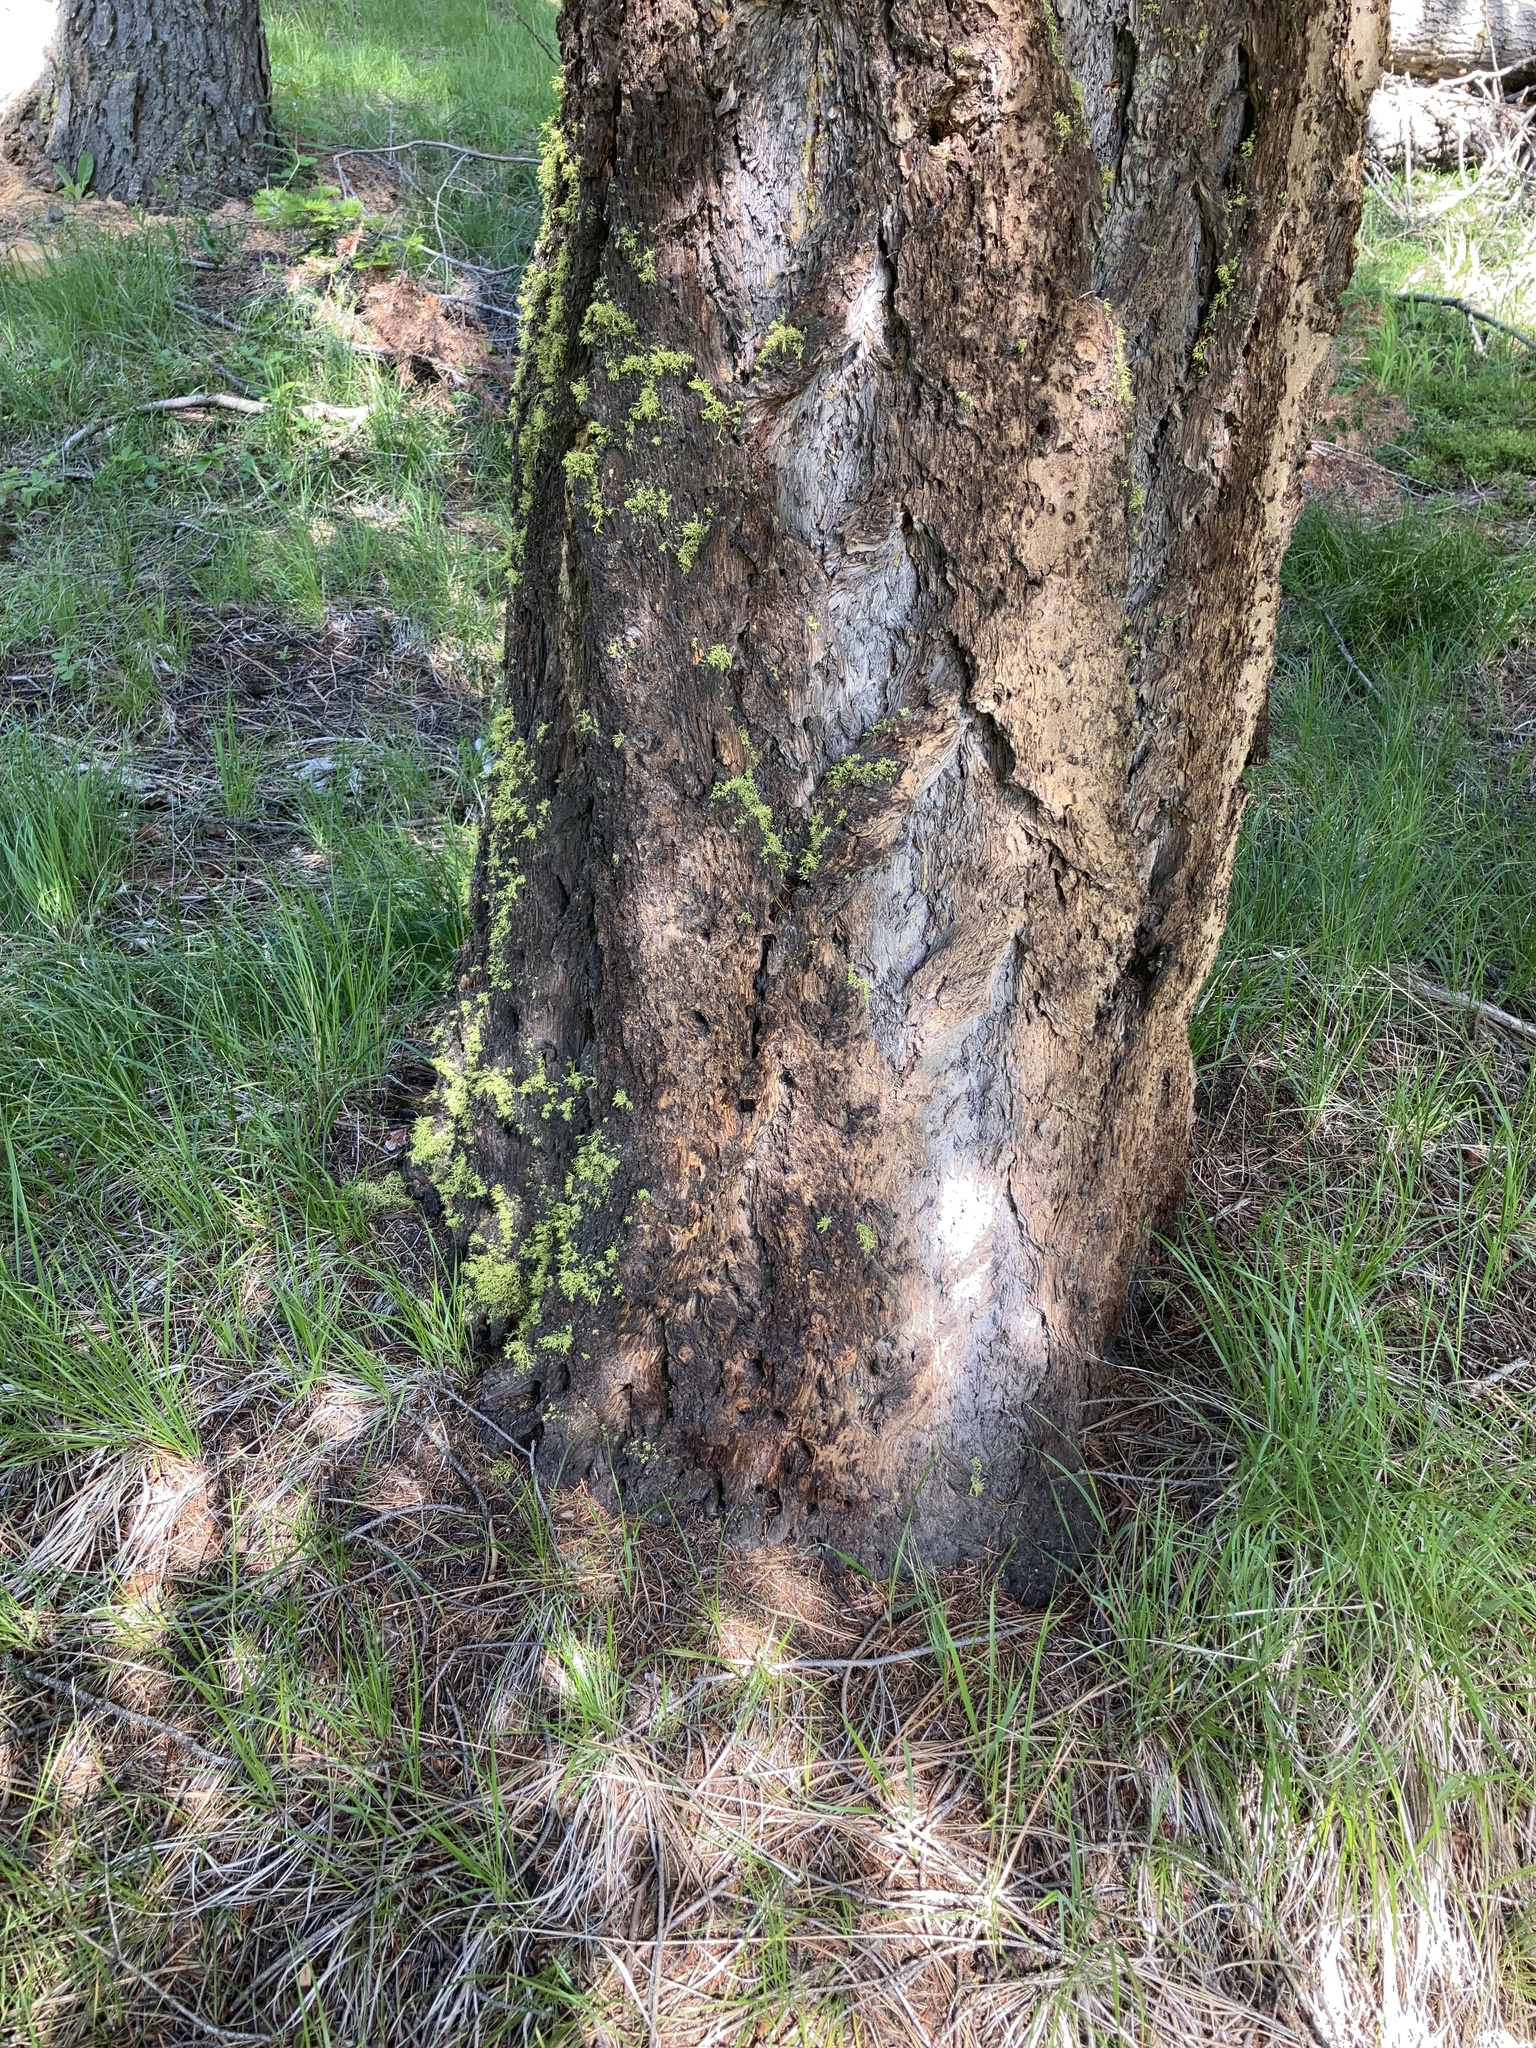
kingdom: Plantae
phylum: Tracheophyta
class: Pinopsida
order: Pinales
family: Pinaceae
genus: Pseudotsuga
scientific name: Pseudotsuga menziesii
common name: Douglas fir
